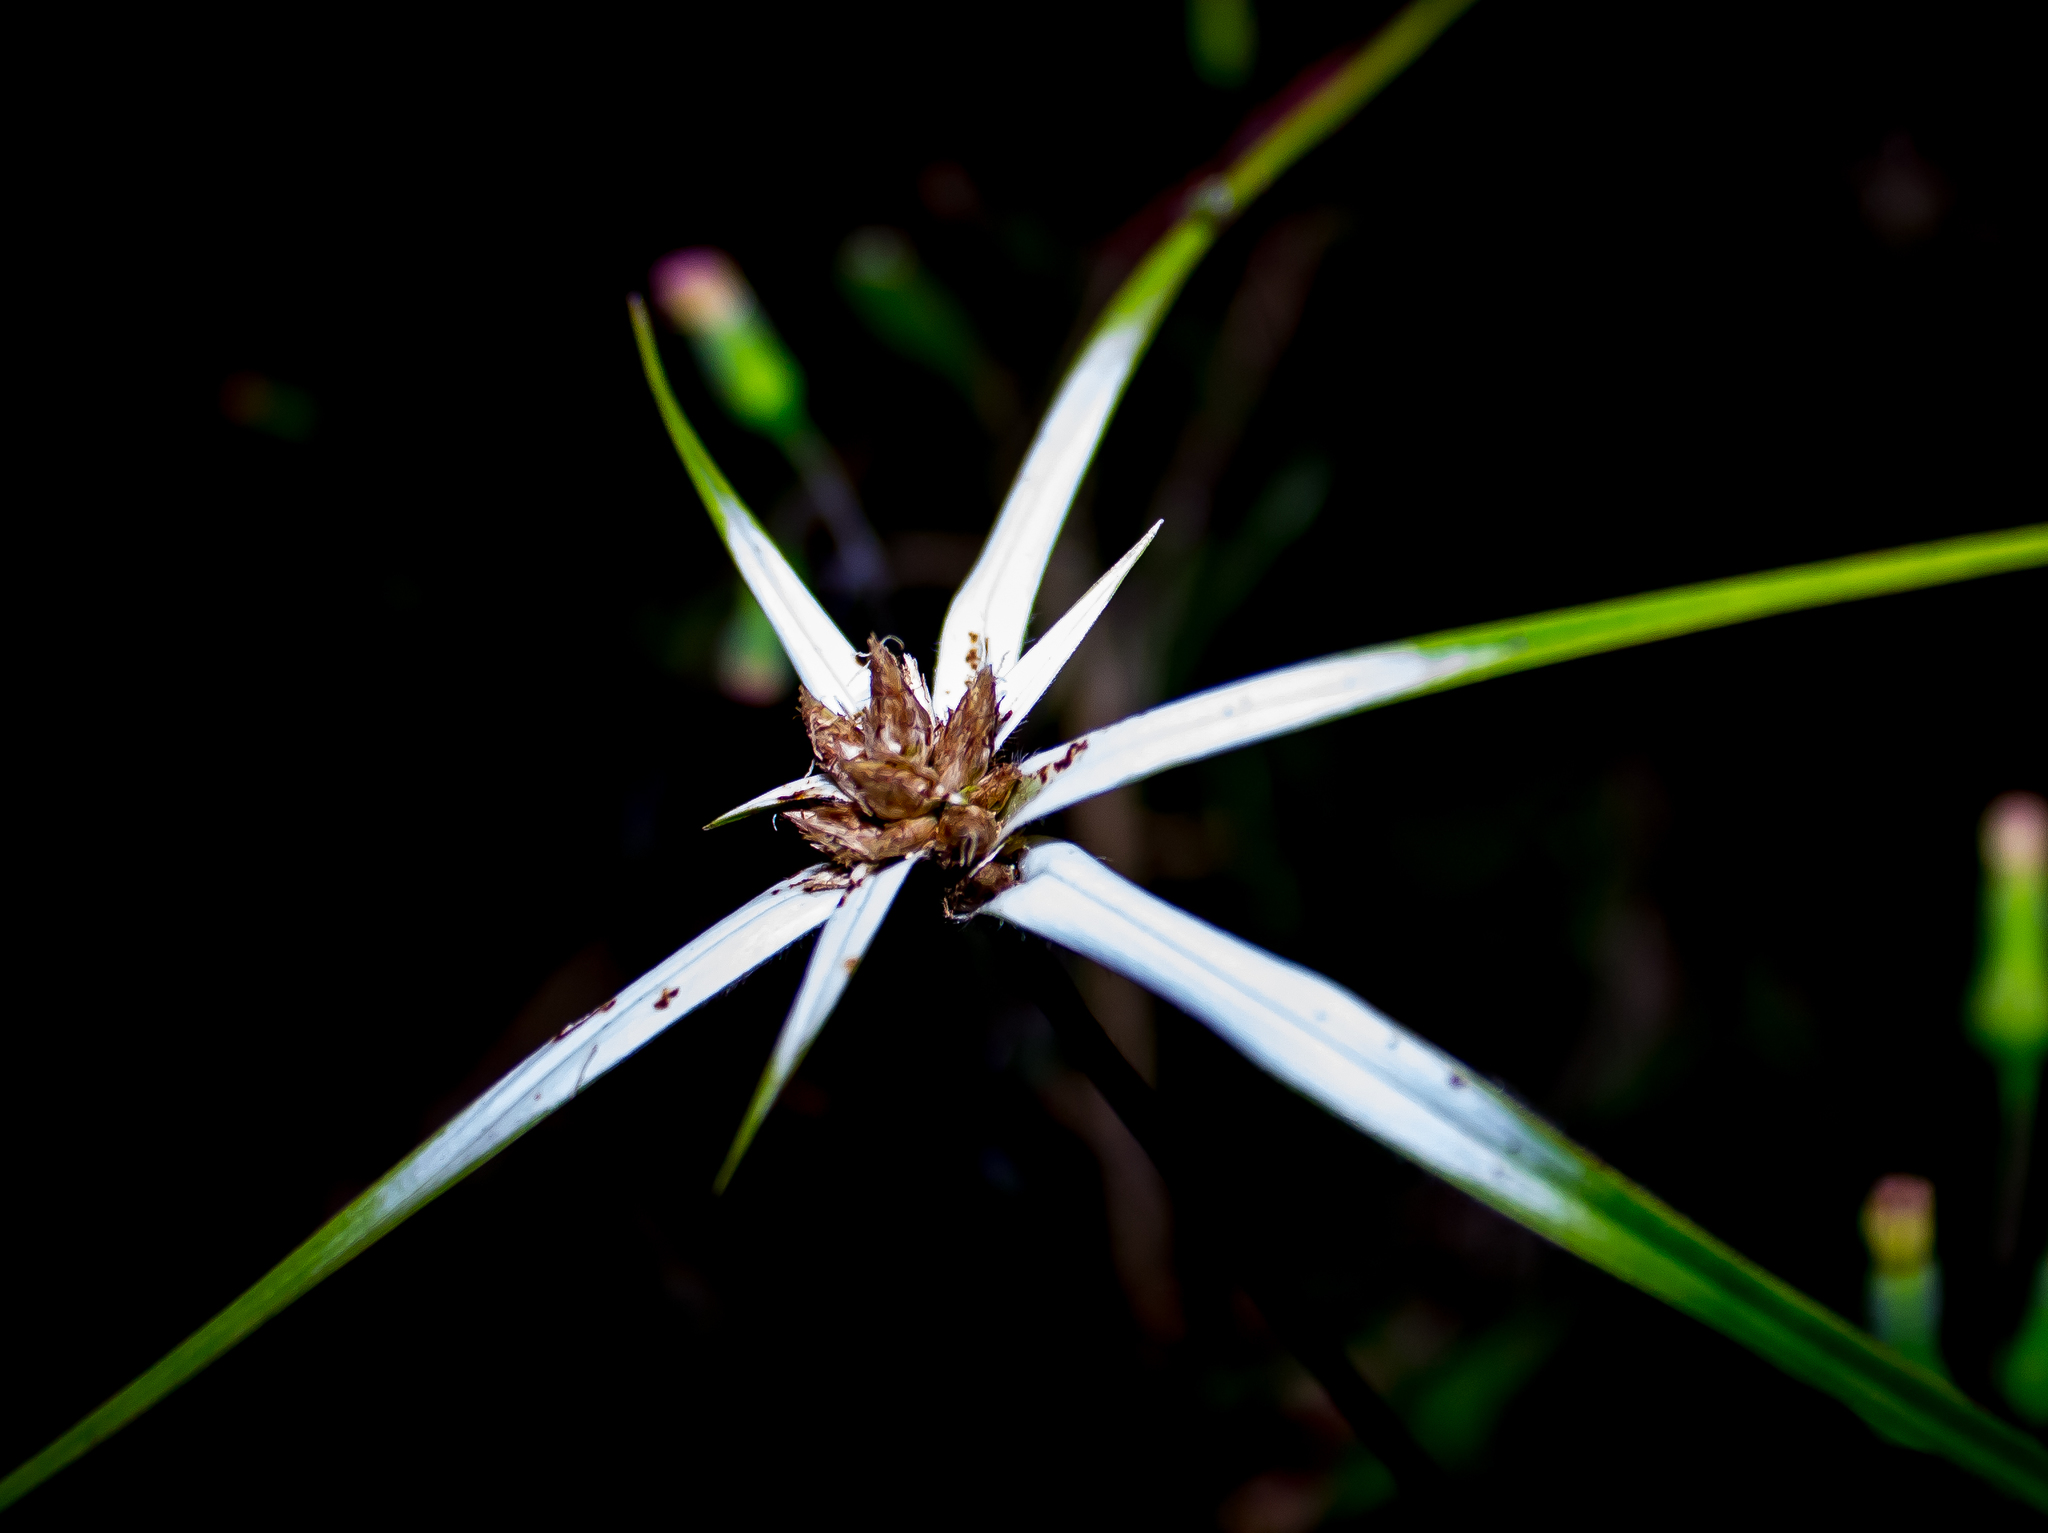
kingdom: Plantae
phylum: Tracheophyta
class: Liliopsida
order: Poales
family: Cyperaceae
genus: Rhynchospora
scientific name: Rhynchospora nervosa
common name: Star sedge
